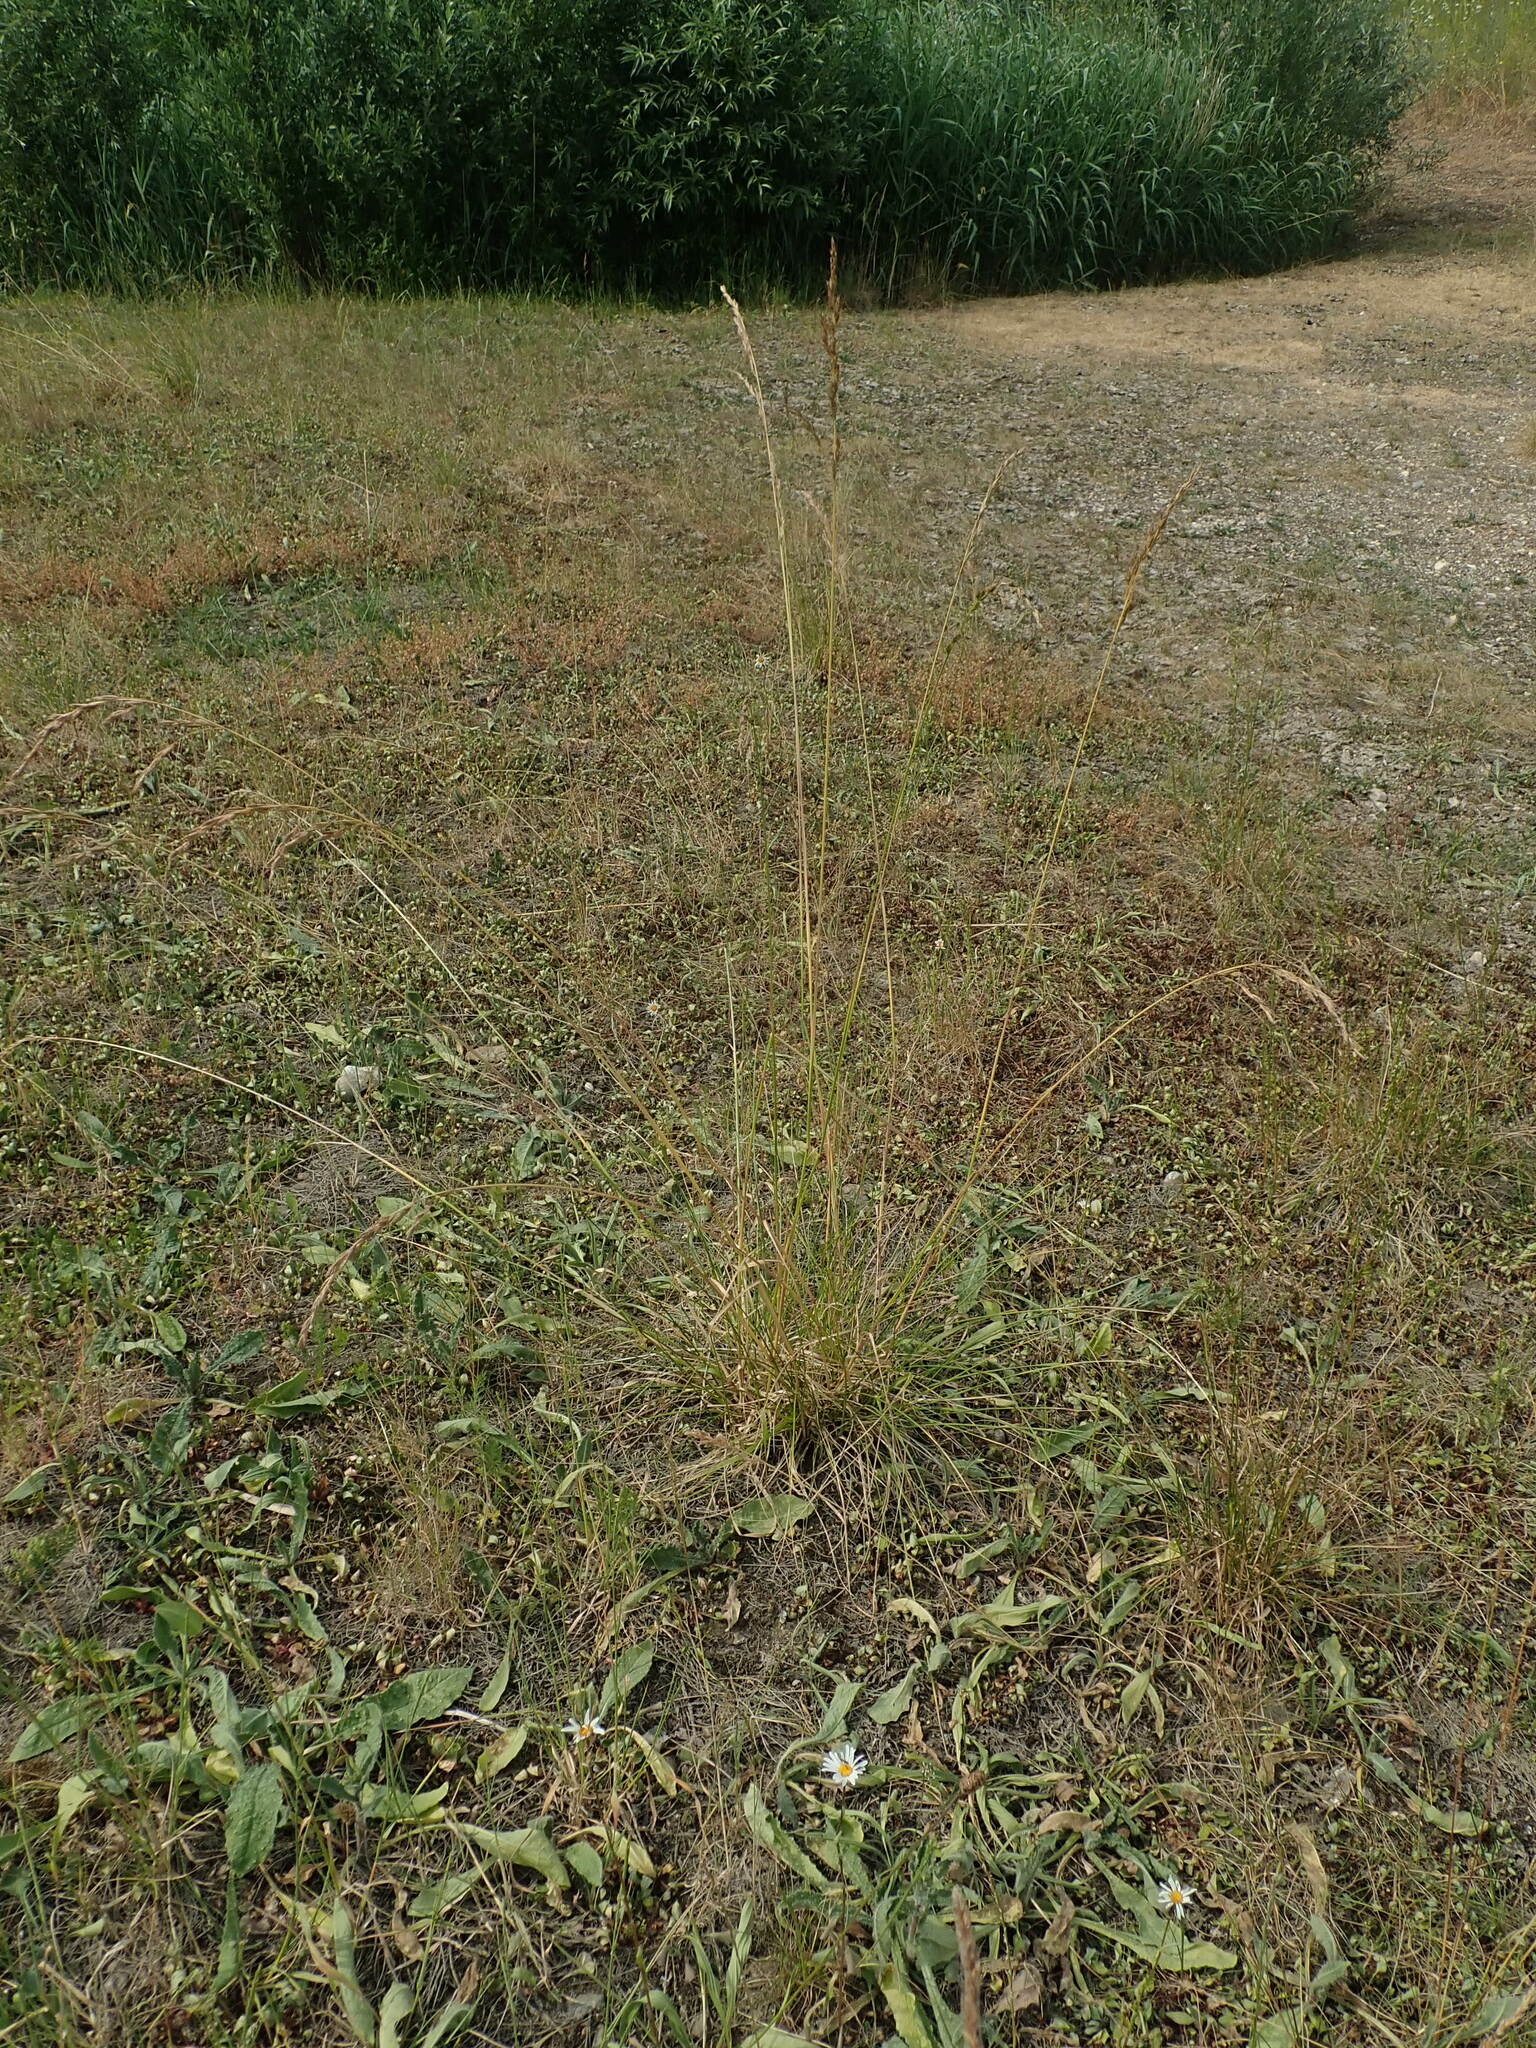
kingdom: Plantae
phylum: Tracheophyta
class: Liliopsida
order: Poales
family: Poaceae
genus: Lolium
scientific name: Lolium arundinaceum
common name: Reed fescue
